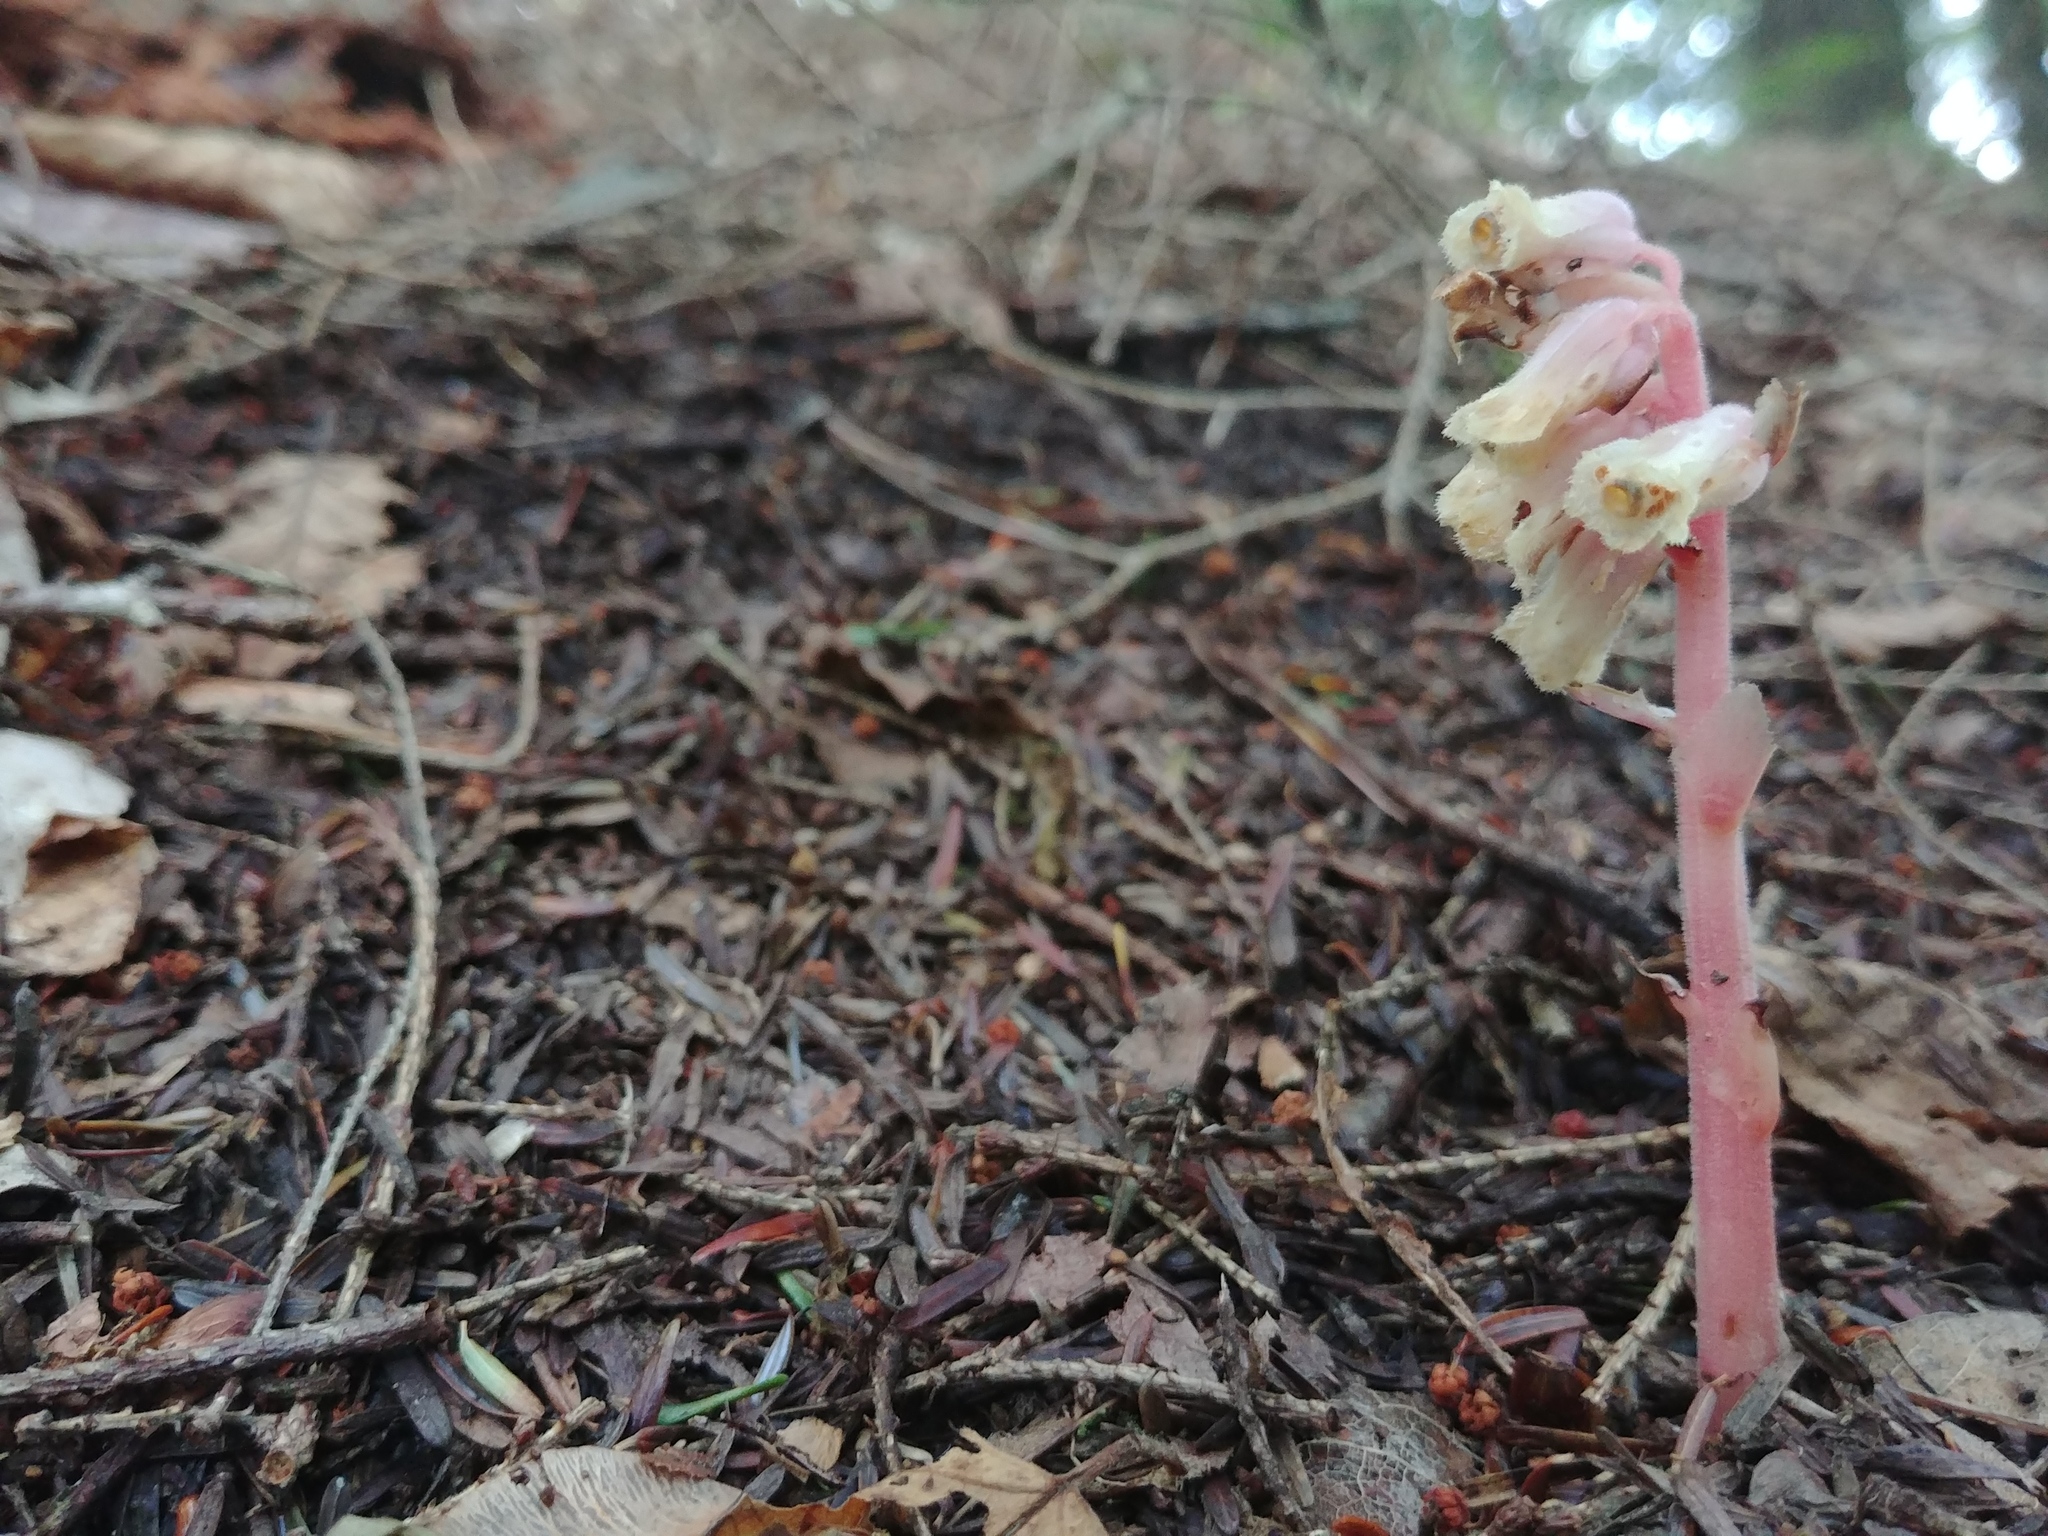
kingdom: Plantae
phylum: Tracheophyta
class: Magnoliopsida
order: Ericales
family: Ericaceae
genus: Hypopitys
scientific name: Hypopitys monotropa
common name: Yellow bird's-nest
